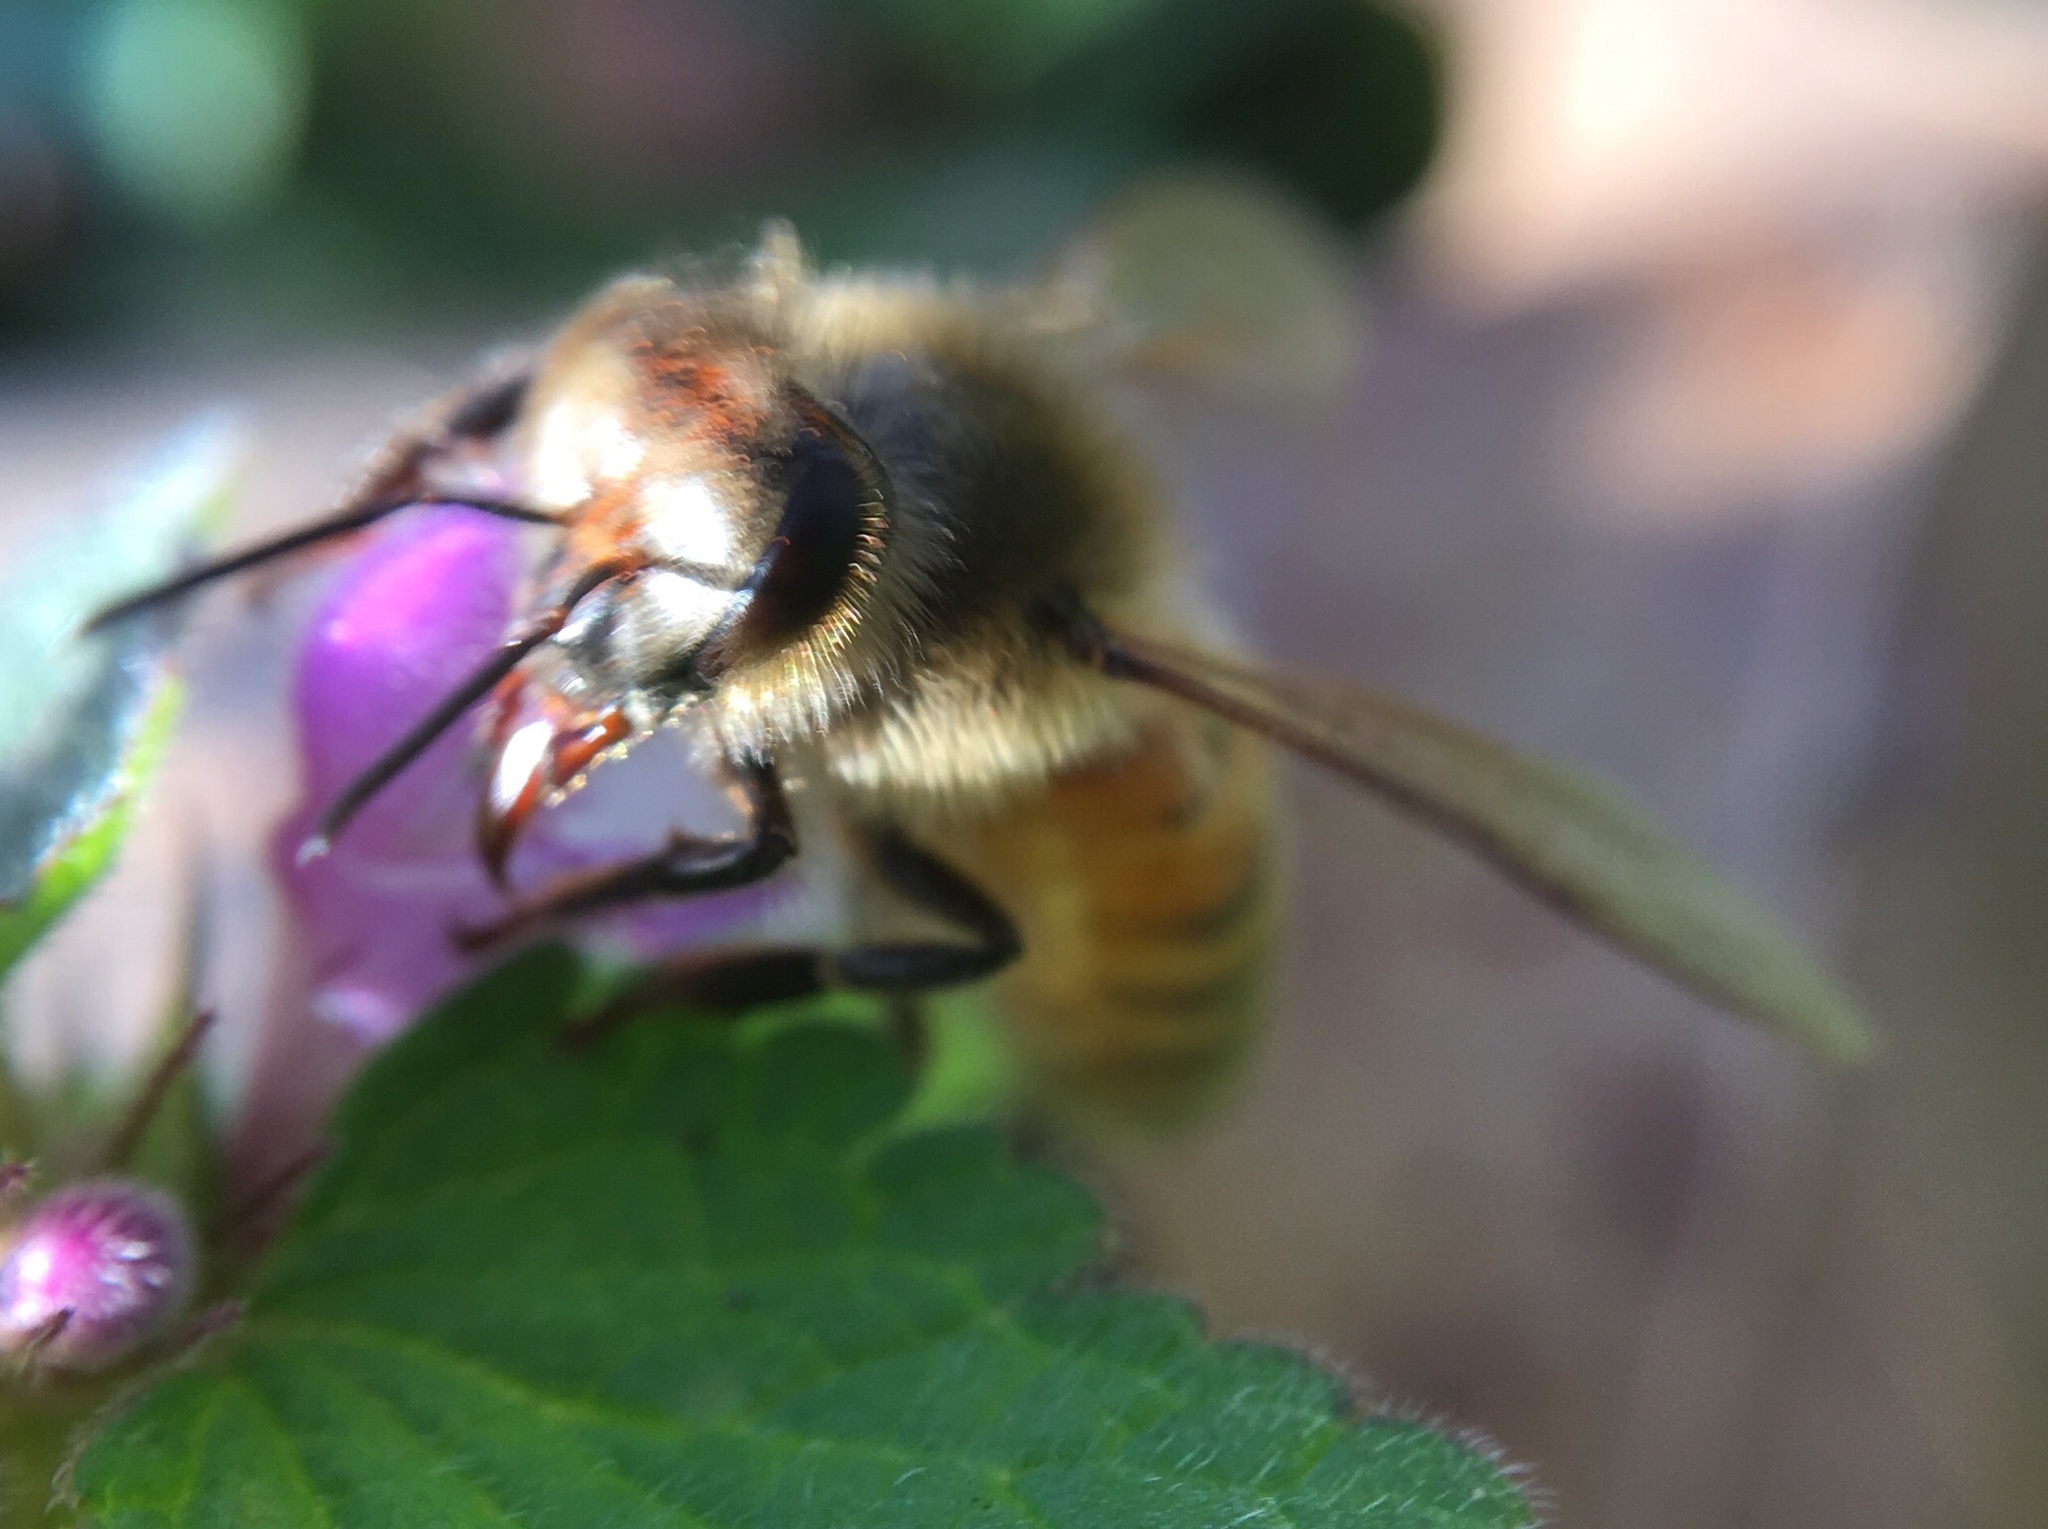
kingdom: Animalia
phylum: Arthropoda
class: Insecta
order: Hymenoptera
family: Apidae
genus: Apis
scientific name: Apis mellifera
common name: Honey bee
